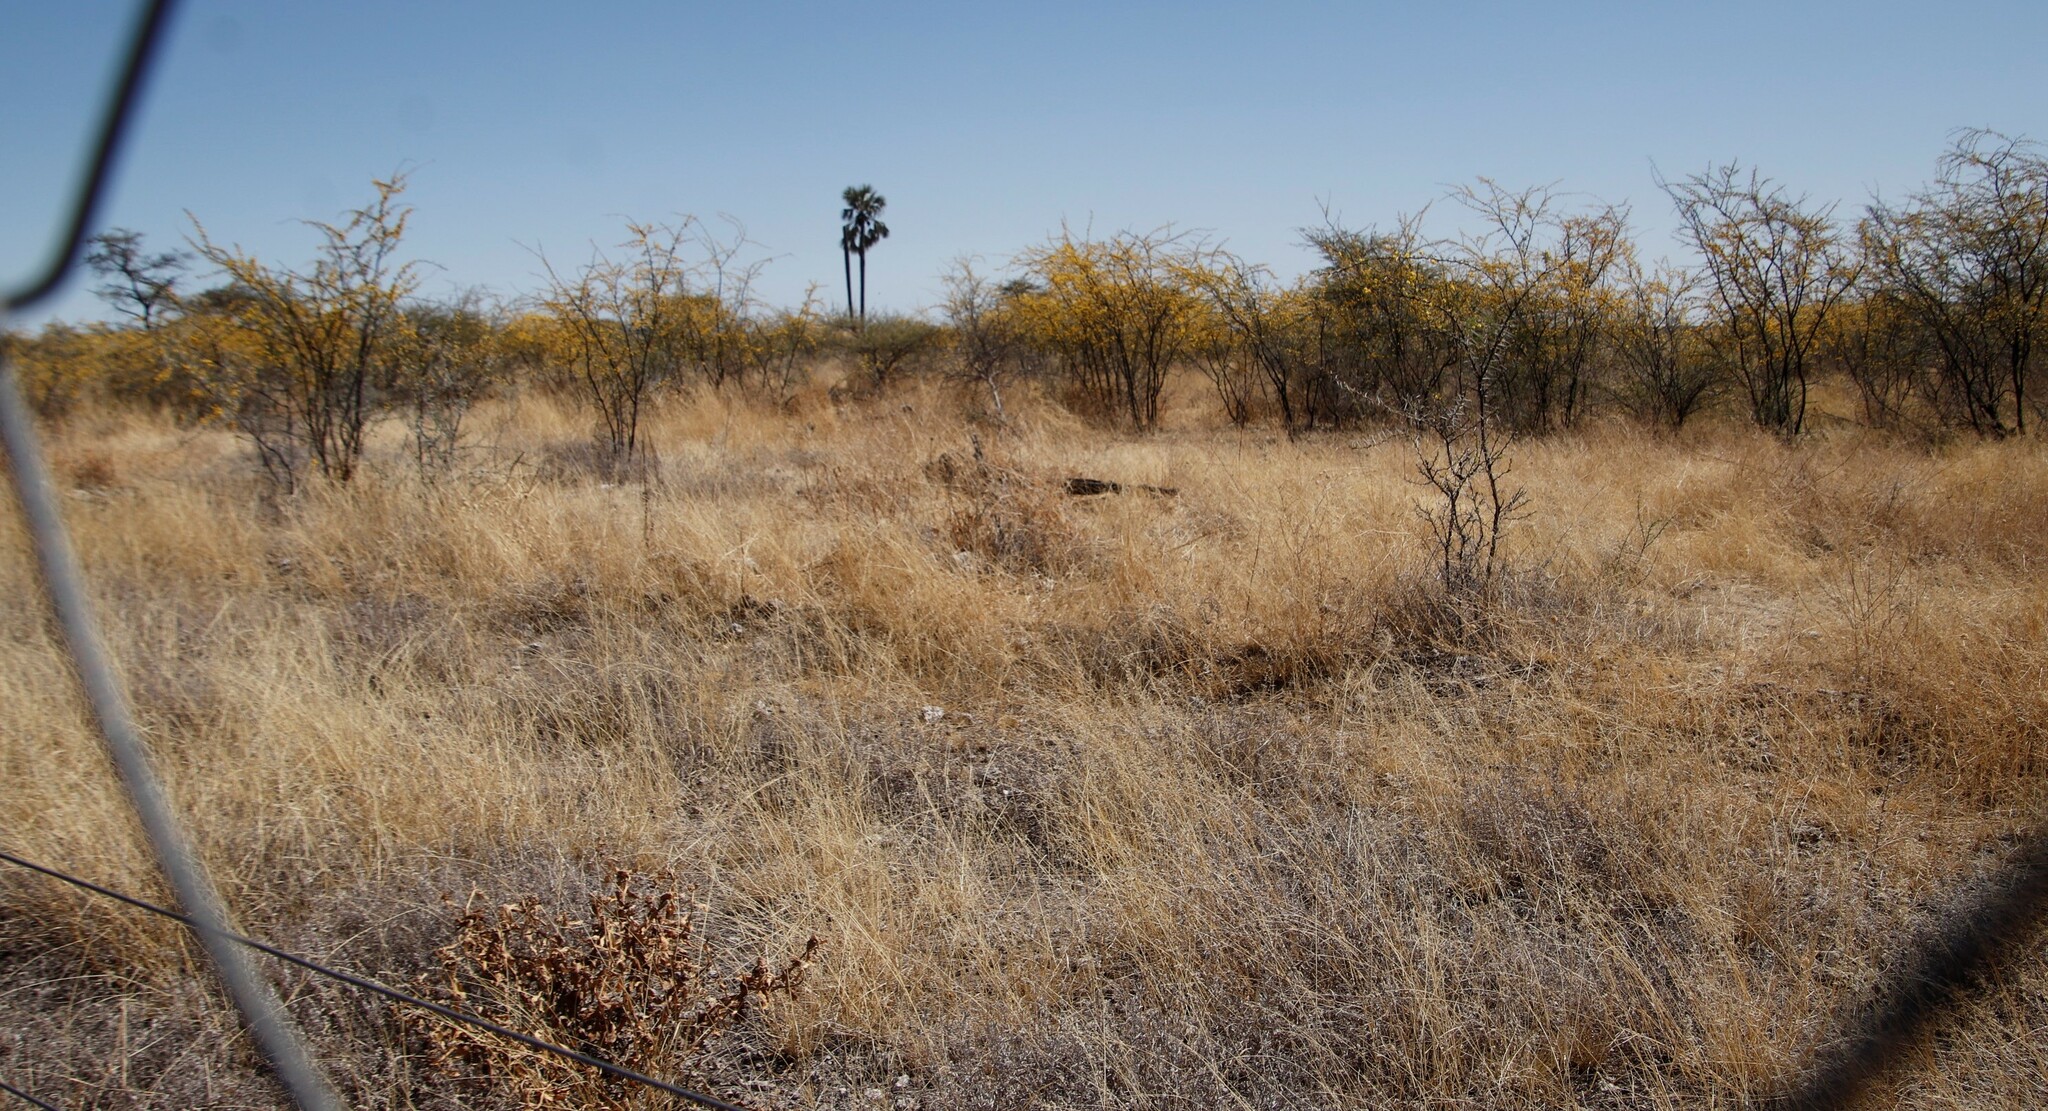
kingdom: Plantae
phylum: Tracheophyta
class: Magnoliopsida
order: Fabales
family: Fabaceae
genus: Vachellia
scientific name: Vachellia nebrownii
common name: Water acacia
